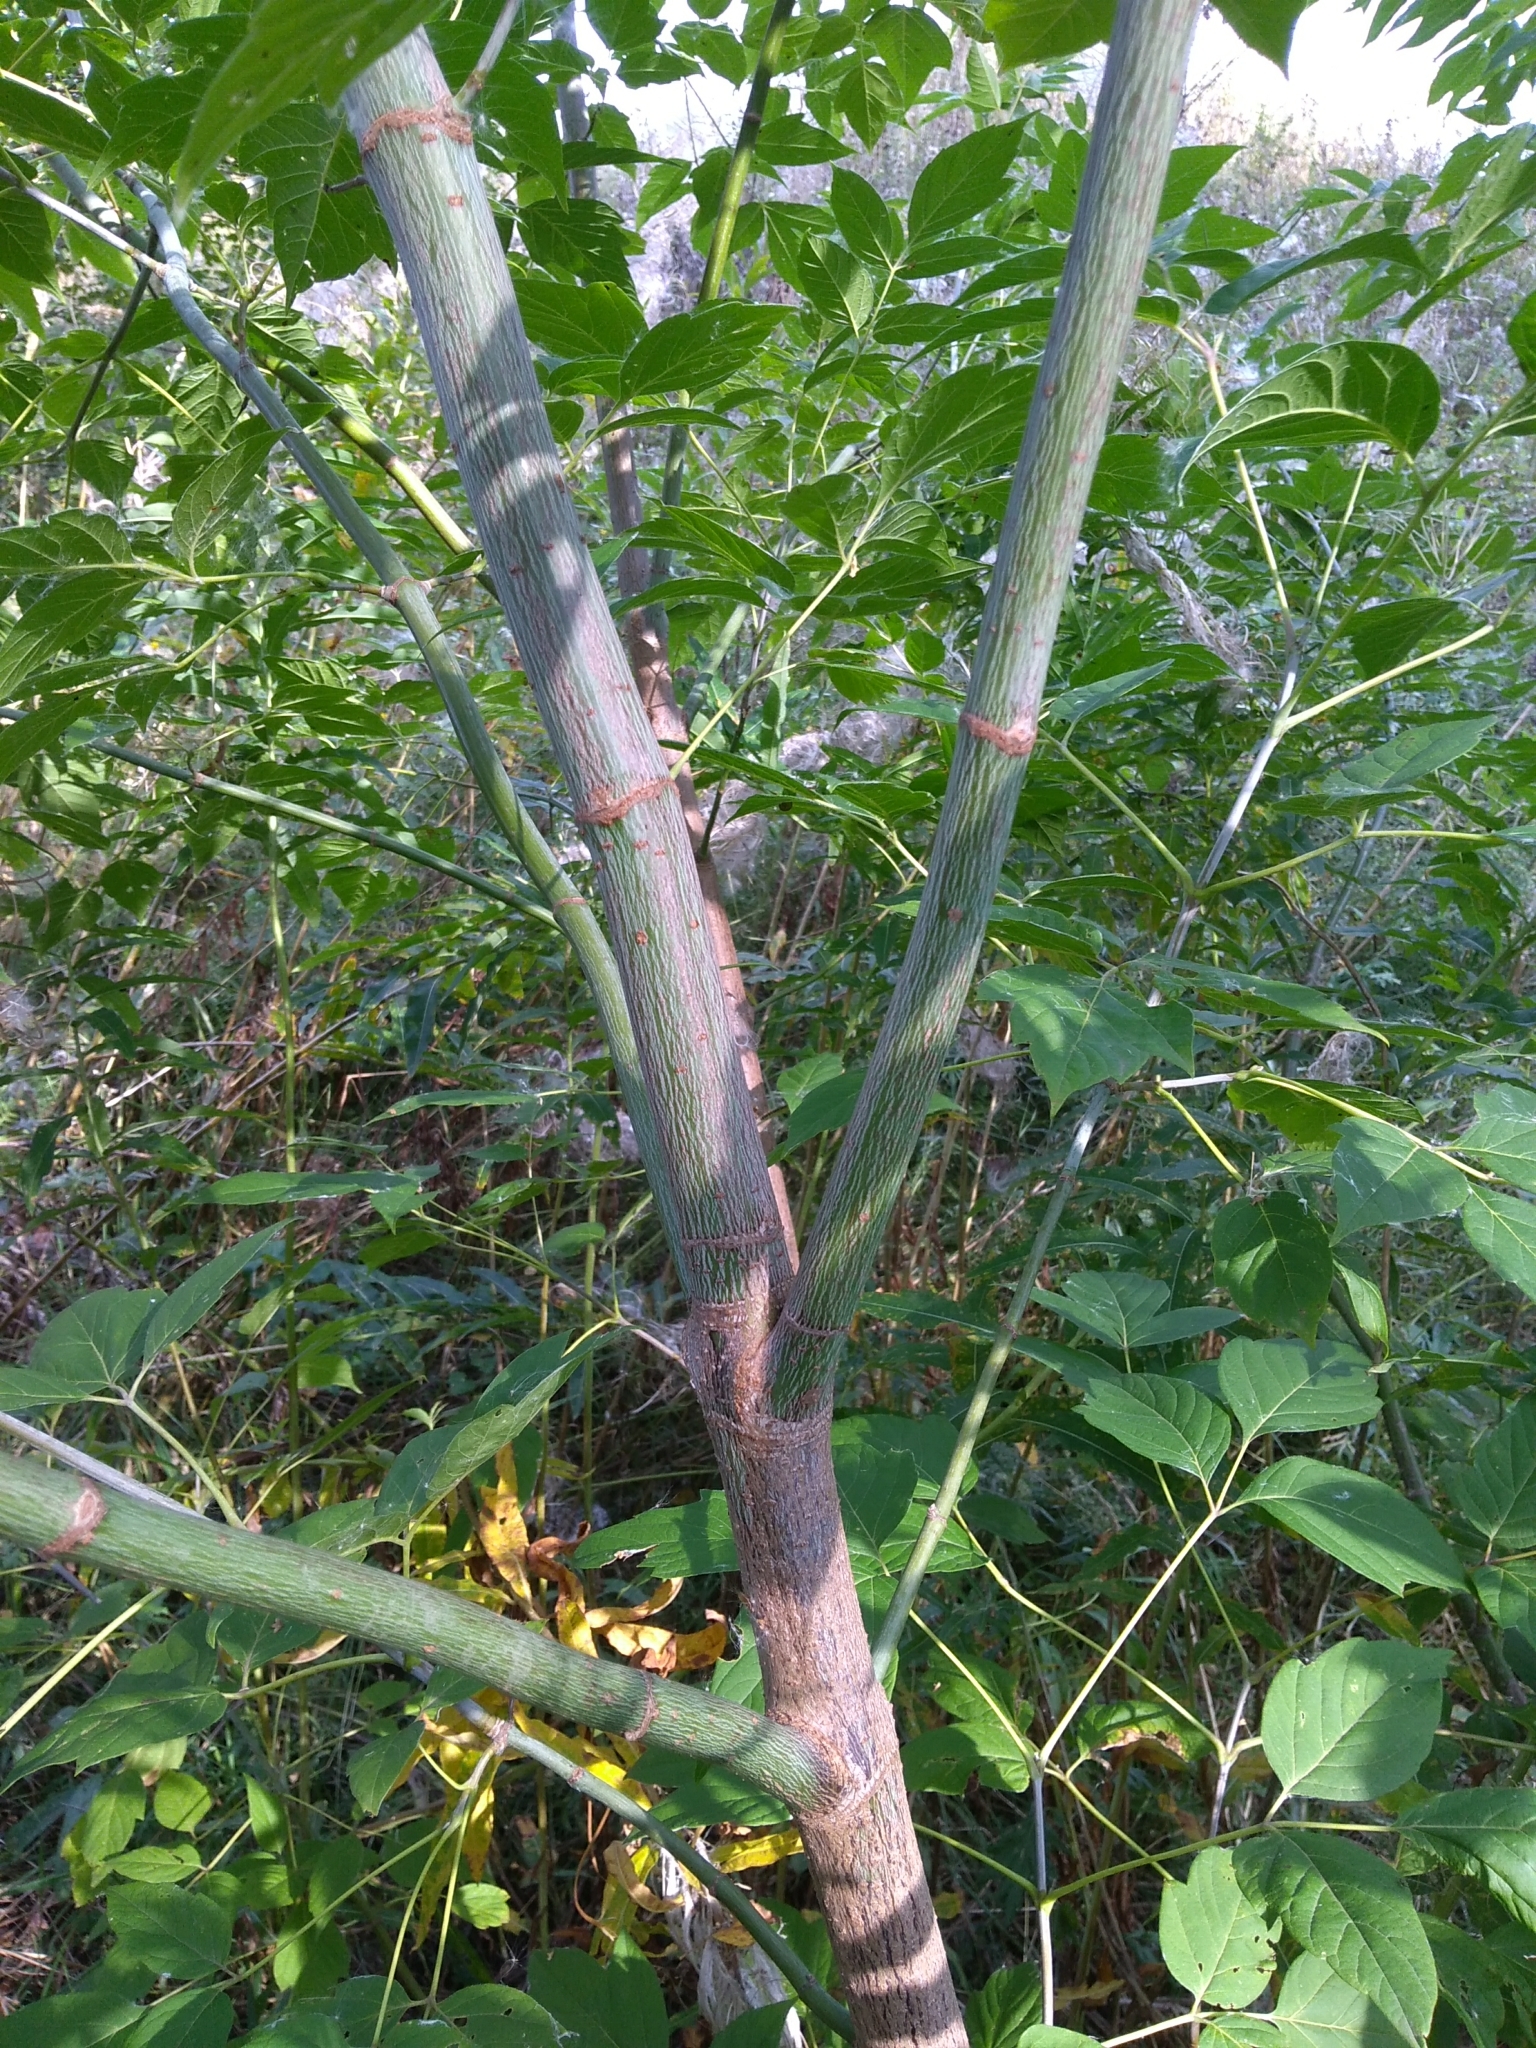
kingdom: Plantae
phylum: Tracheophyta
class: Magnoliopsida
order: Sapindales
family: Sapindaceae
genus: Acer
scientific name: Acer negundo
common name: Ashleaf maple
